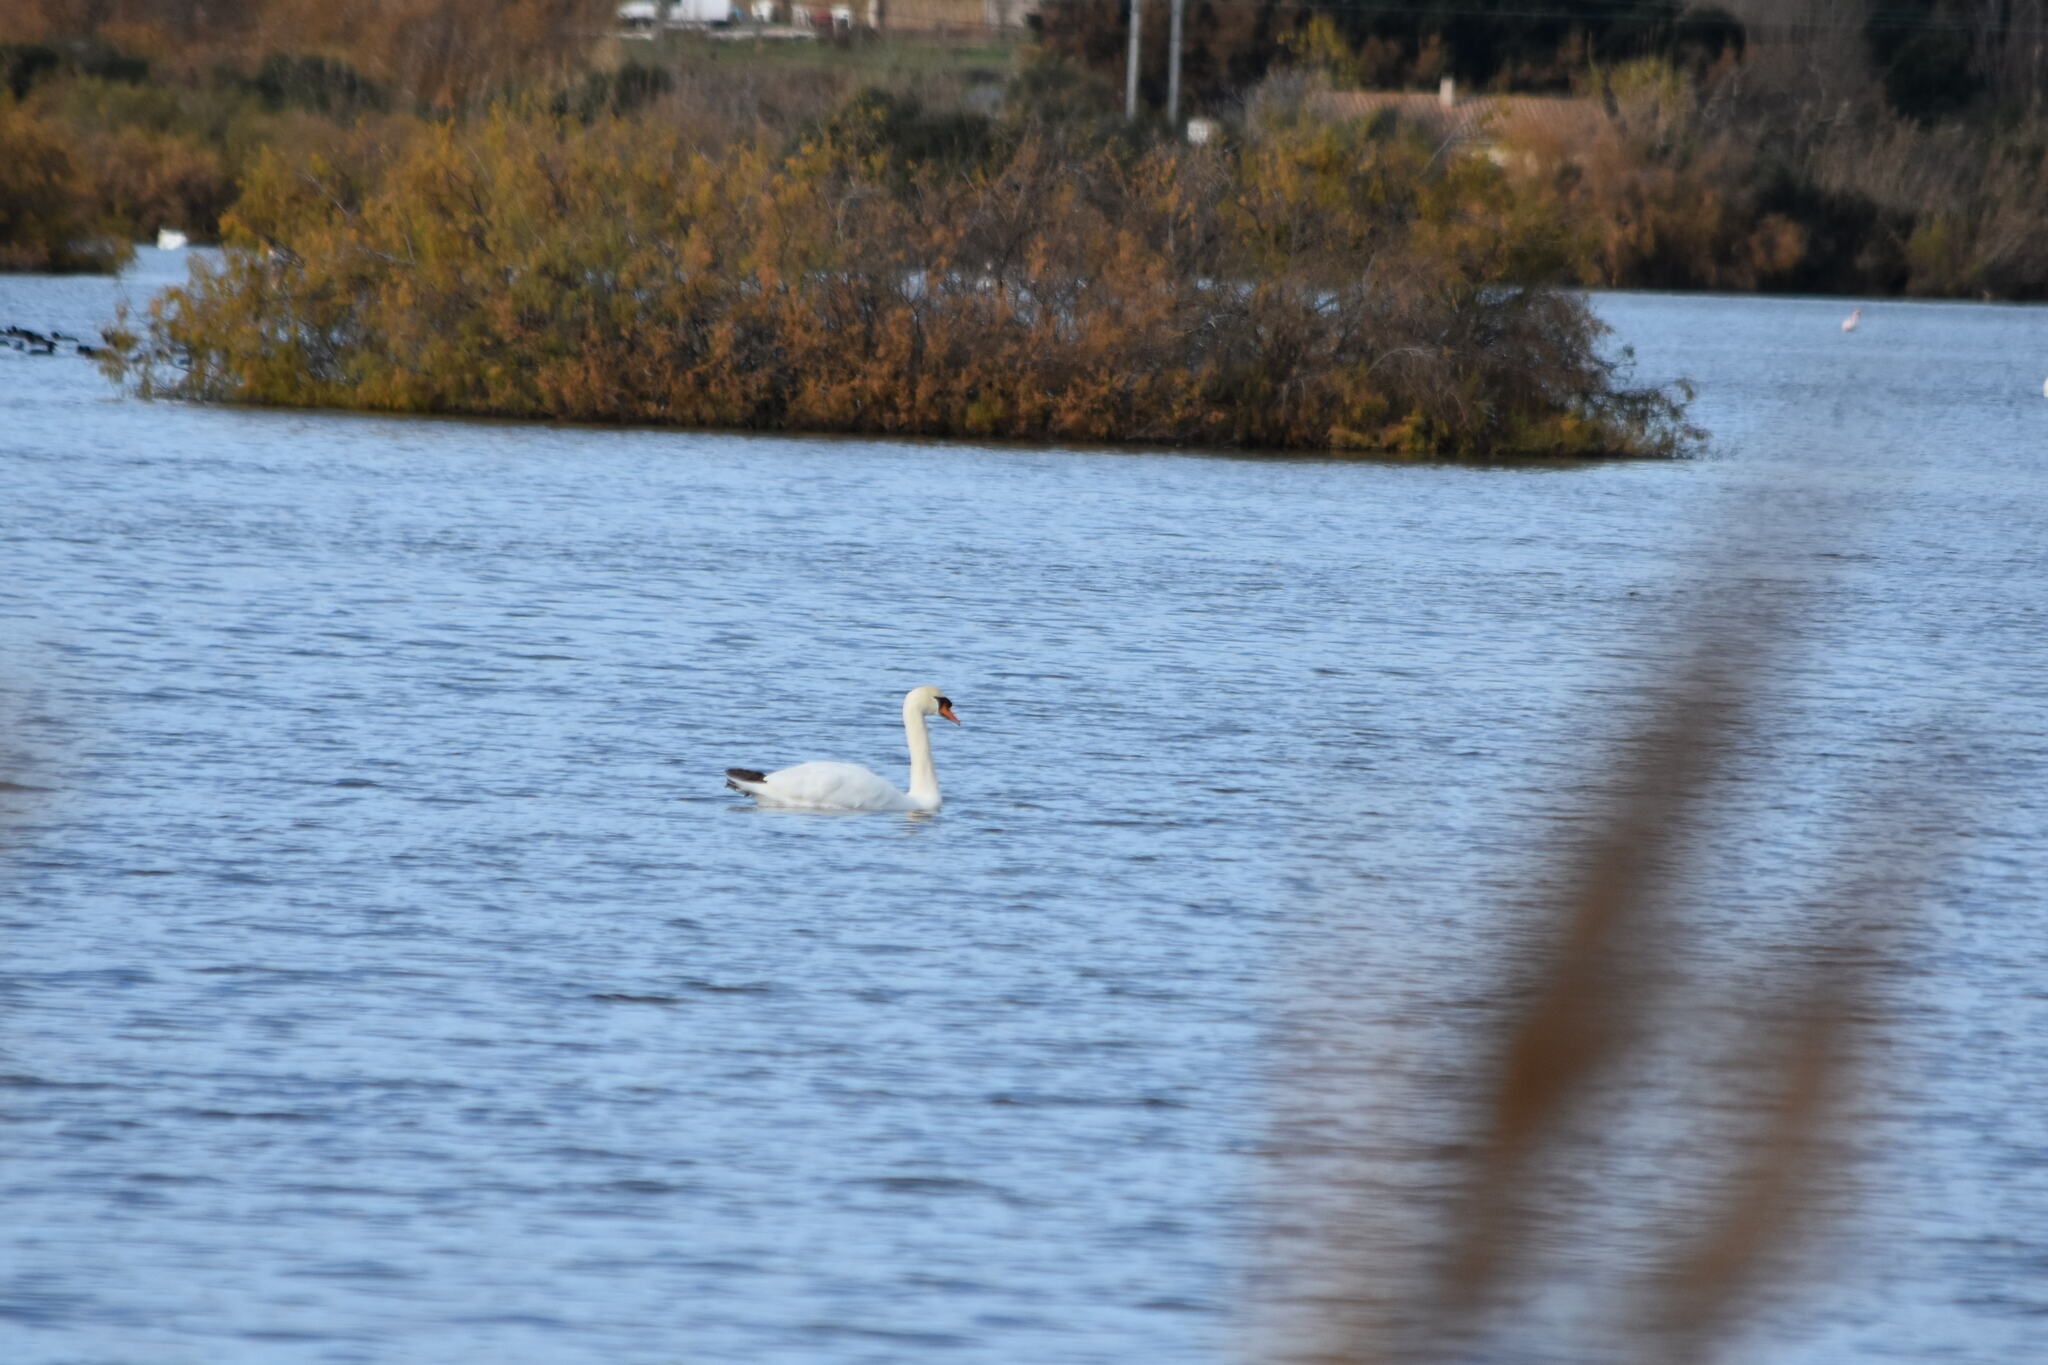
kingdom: Animalia
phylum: Chordata
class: Aves
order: Anseriformes
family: Anatidae
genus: Cygnus
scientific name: Cygnus olor
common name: Mute swan
